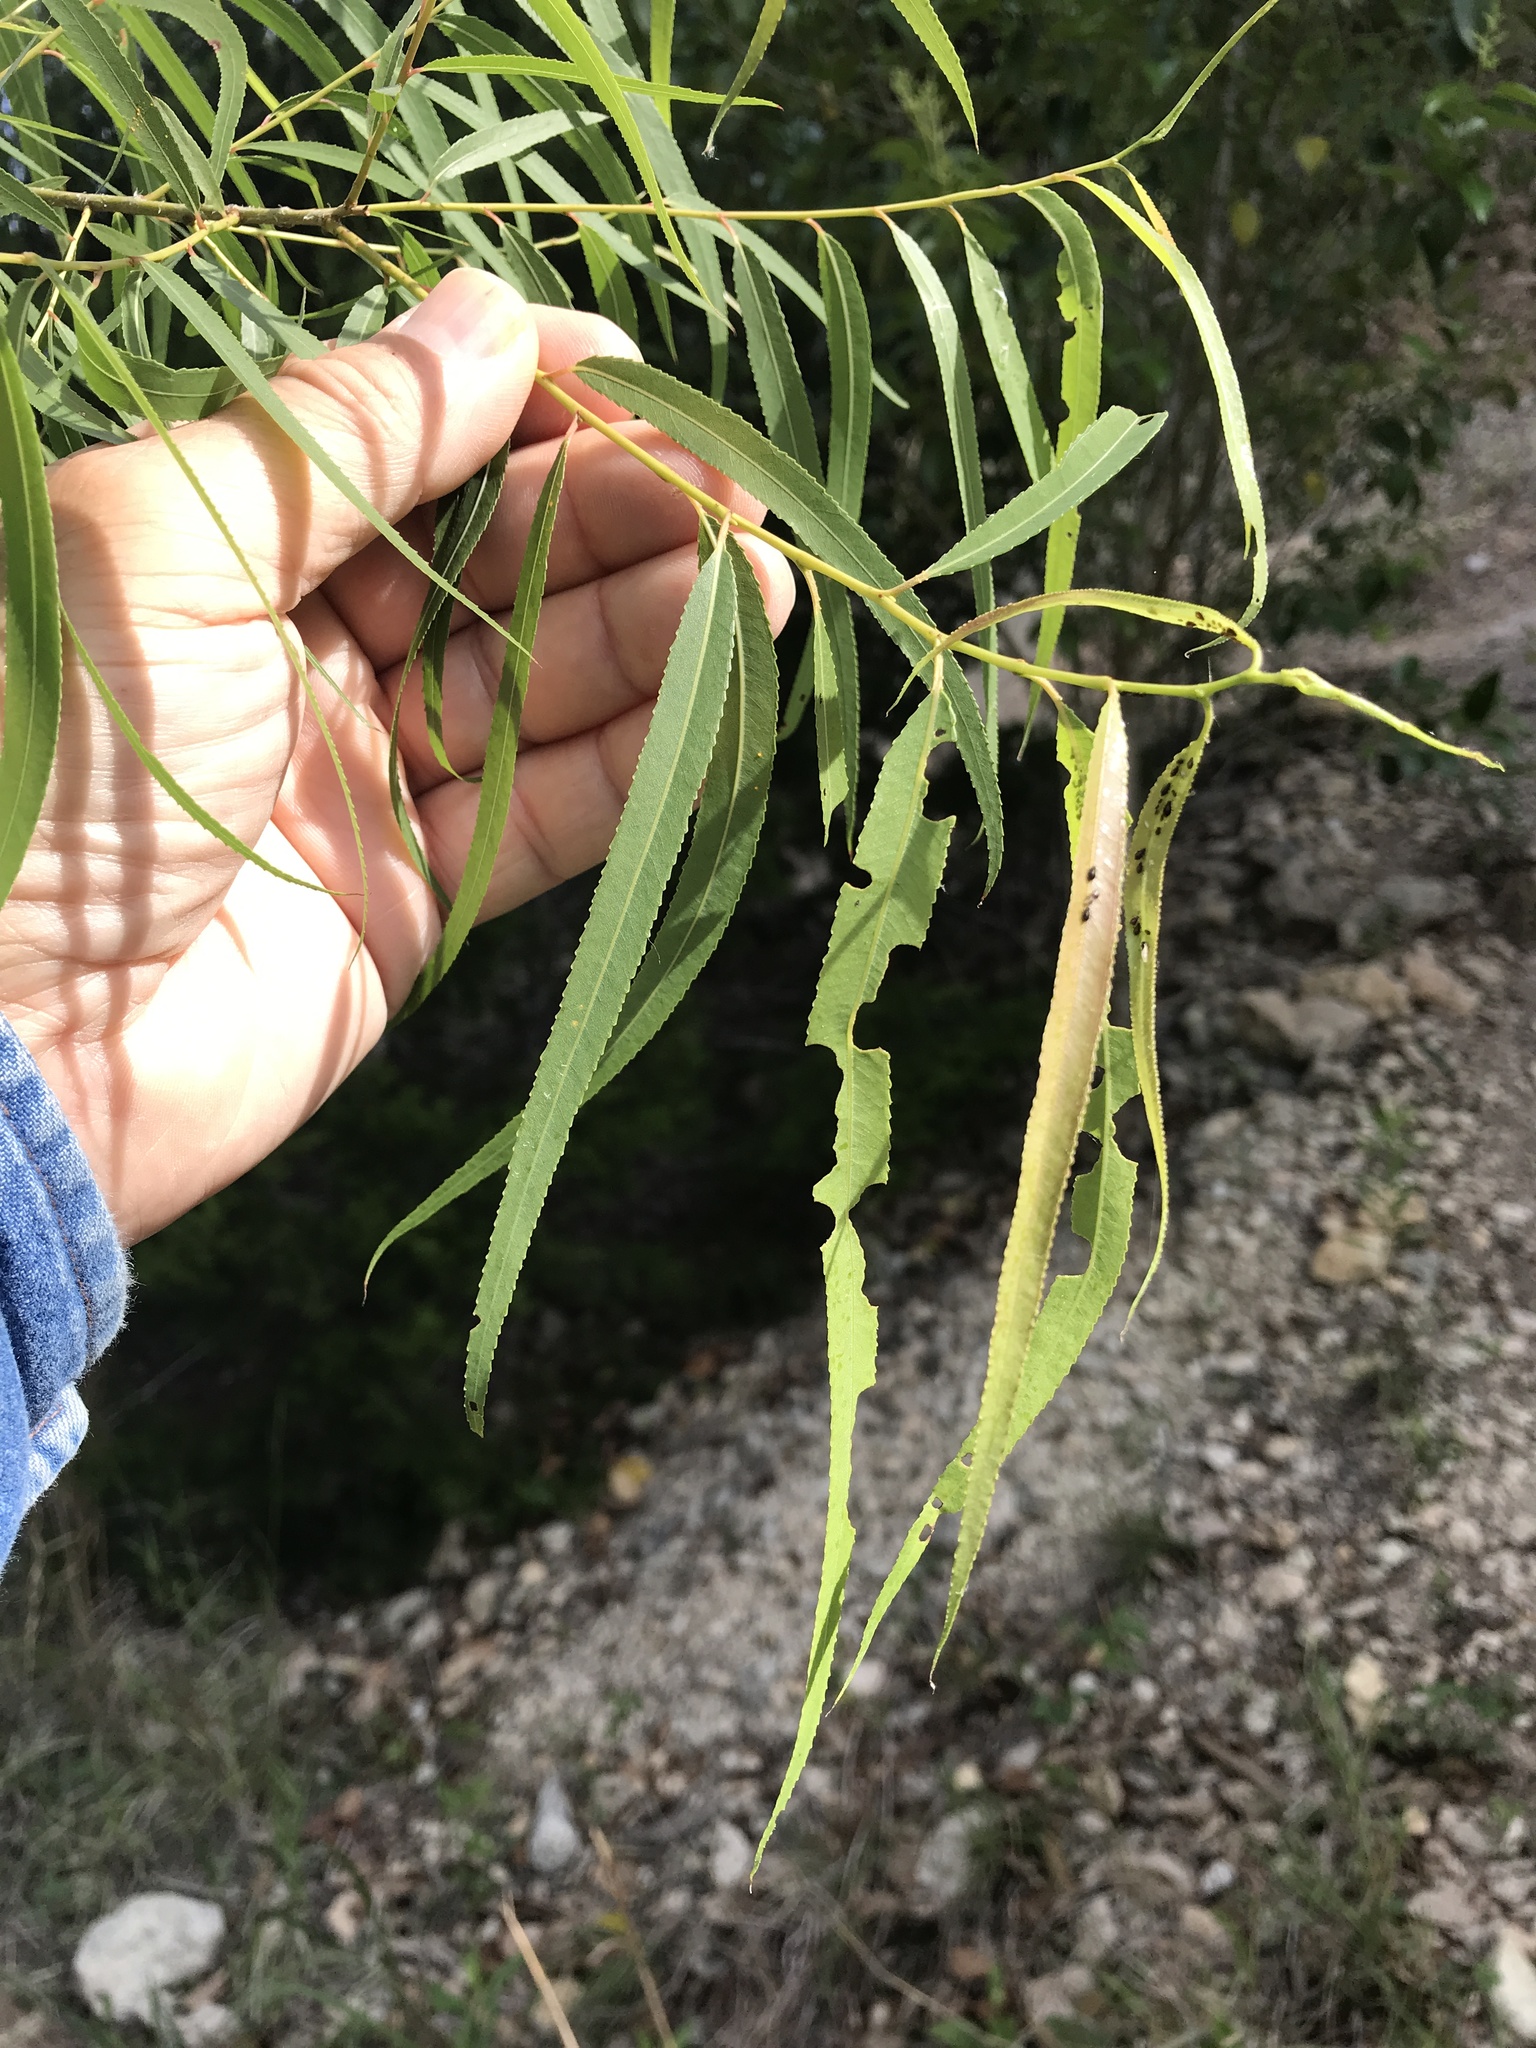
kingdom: Plantae
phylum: Tracheophyta
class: Magnoliopsida
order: Malpighiales
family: Salicaceae
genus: Salix
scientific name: Salix nigra
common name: Black willow
